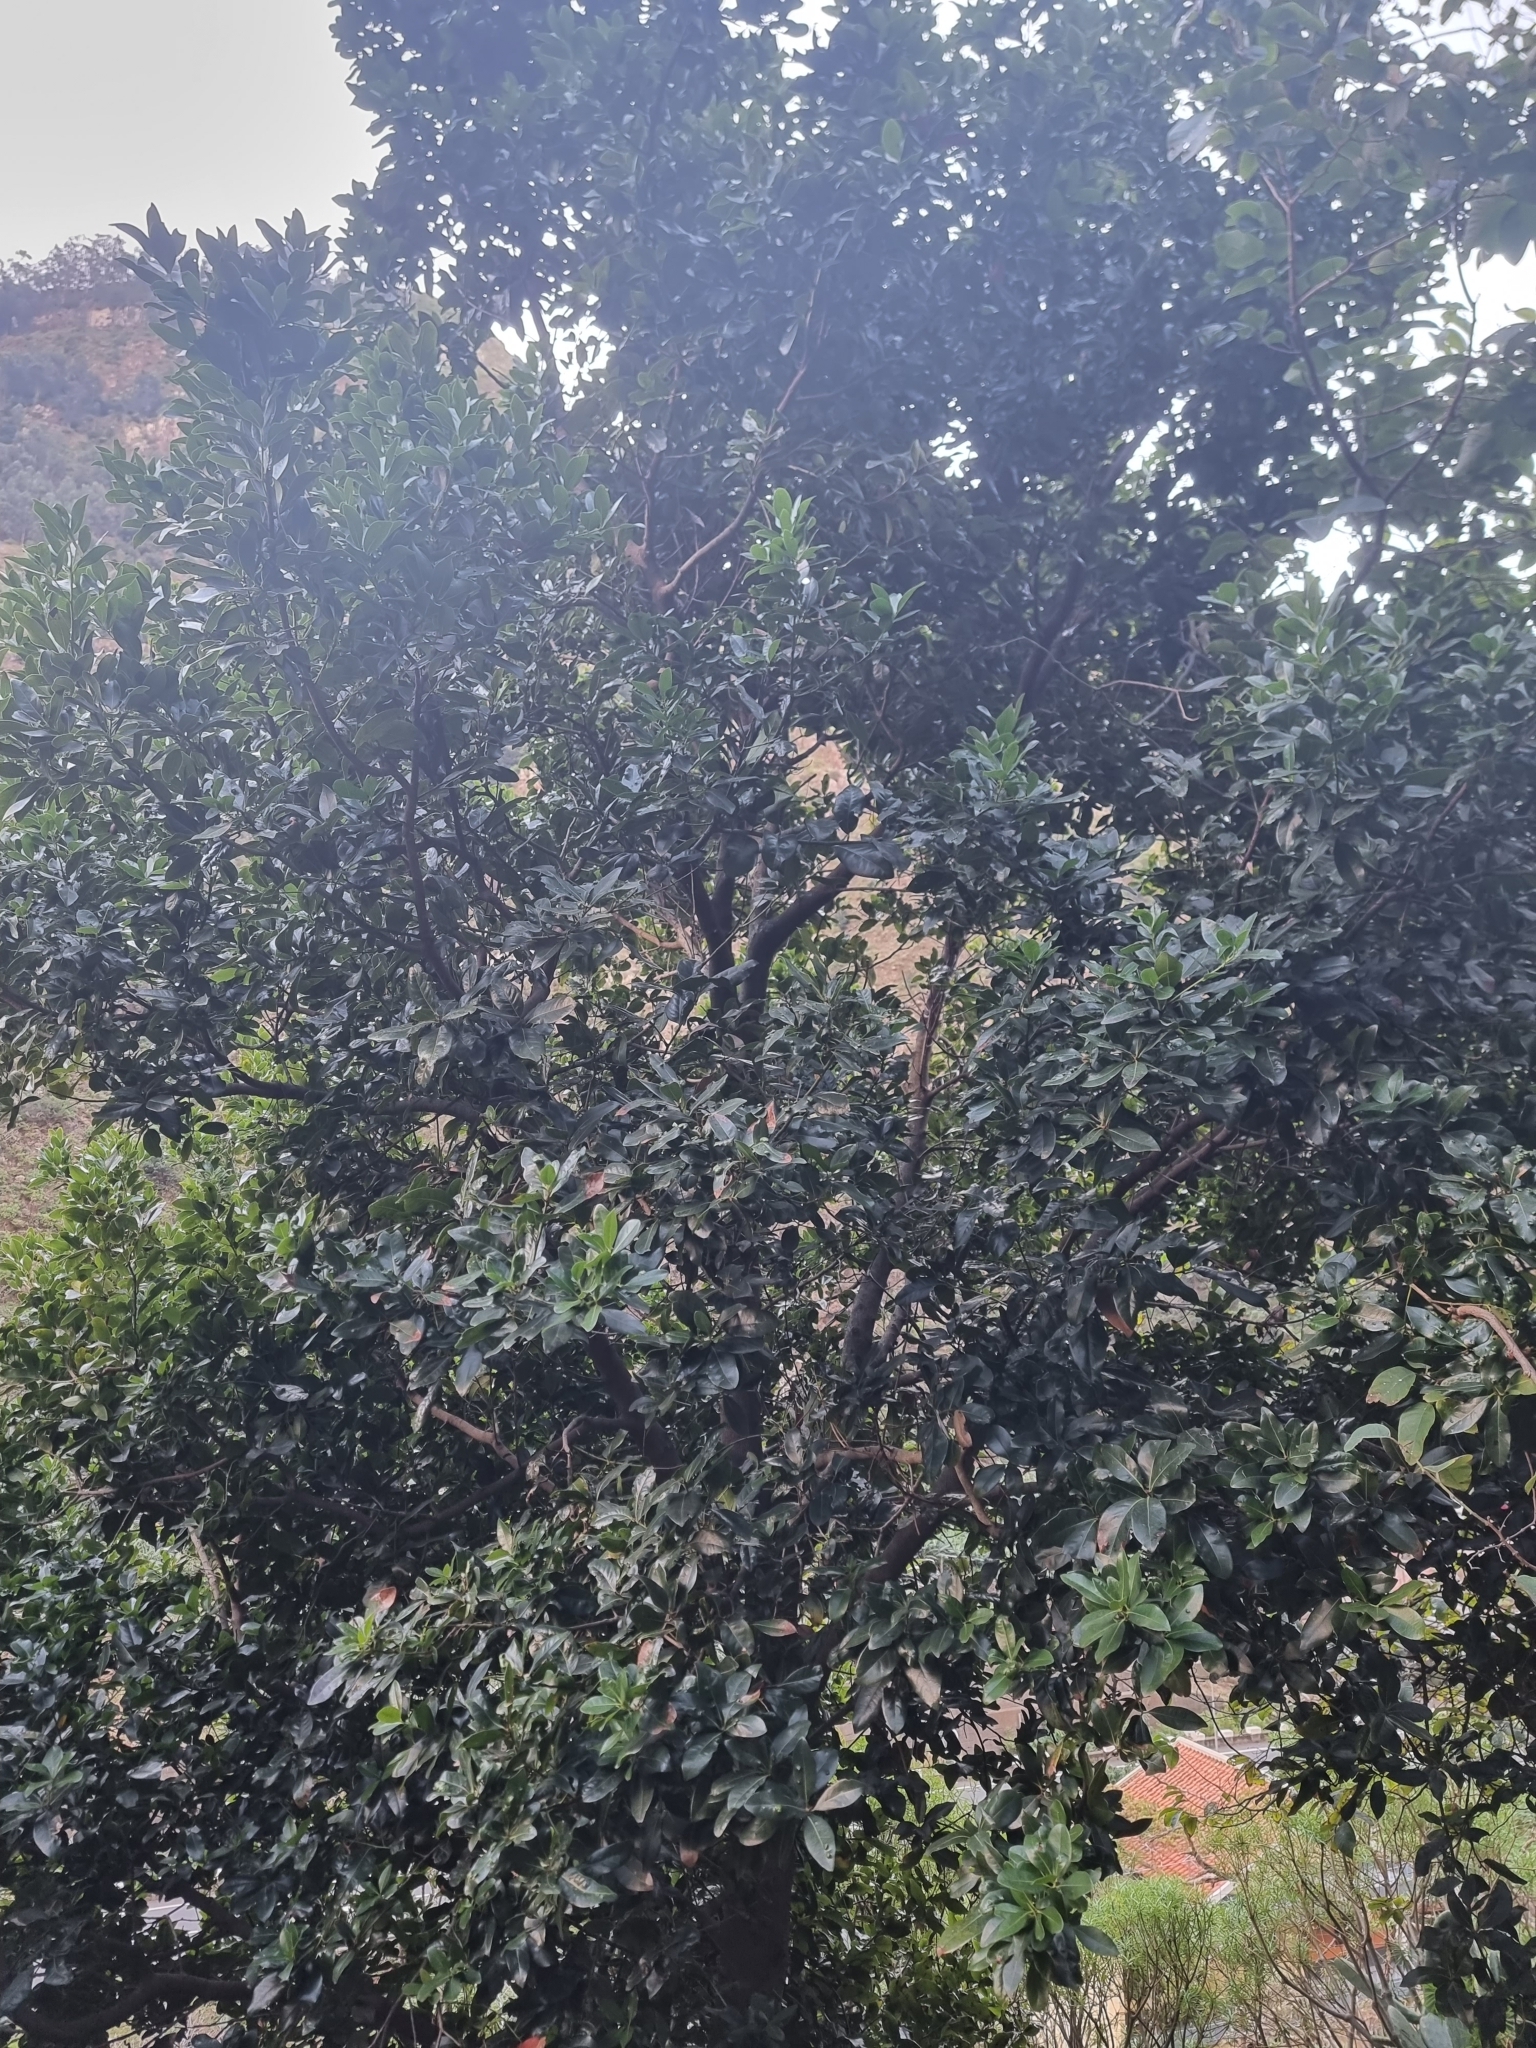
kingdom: Plantae
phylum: Tracheophyta
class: Magnoliopsida
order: Laurales
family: Lauraceae
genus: Apollonias
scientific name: Apollonias barbujana
